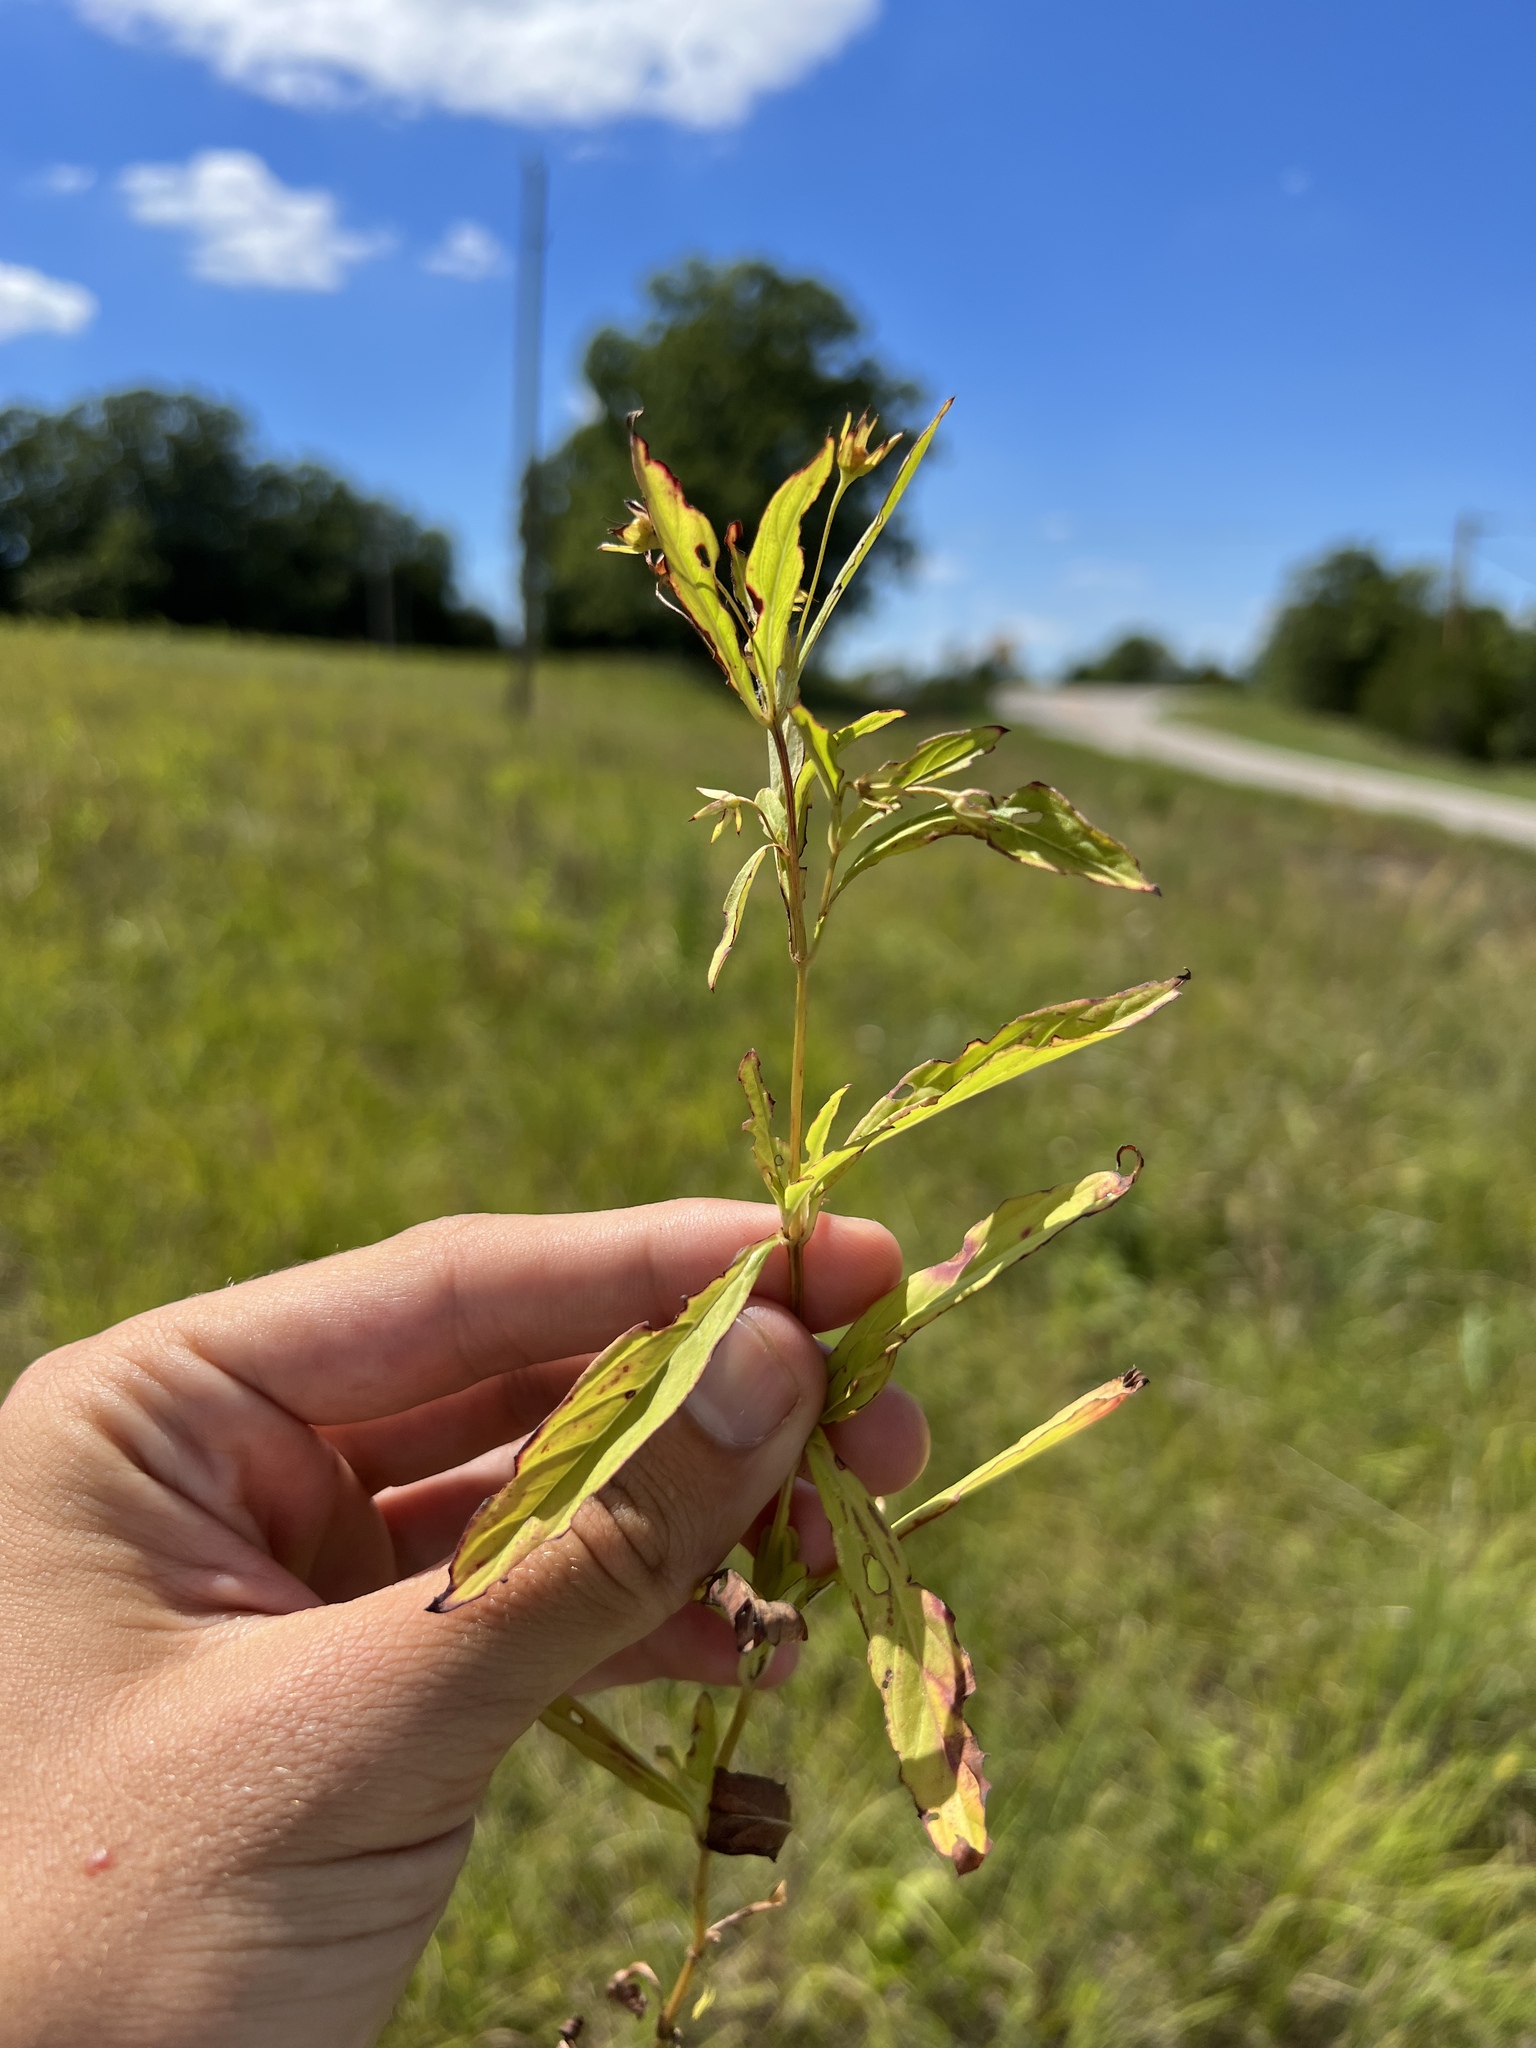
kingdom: Plantae
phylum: Tracheophyta
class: Magnoliopsida
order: Ericales
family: Primulaceae
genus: Lysimachia
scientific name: Lysimachia lanceolata
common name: Lance-leaved loosestrife
